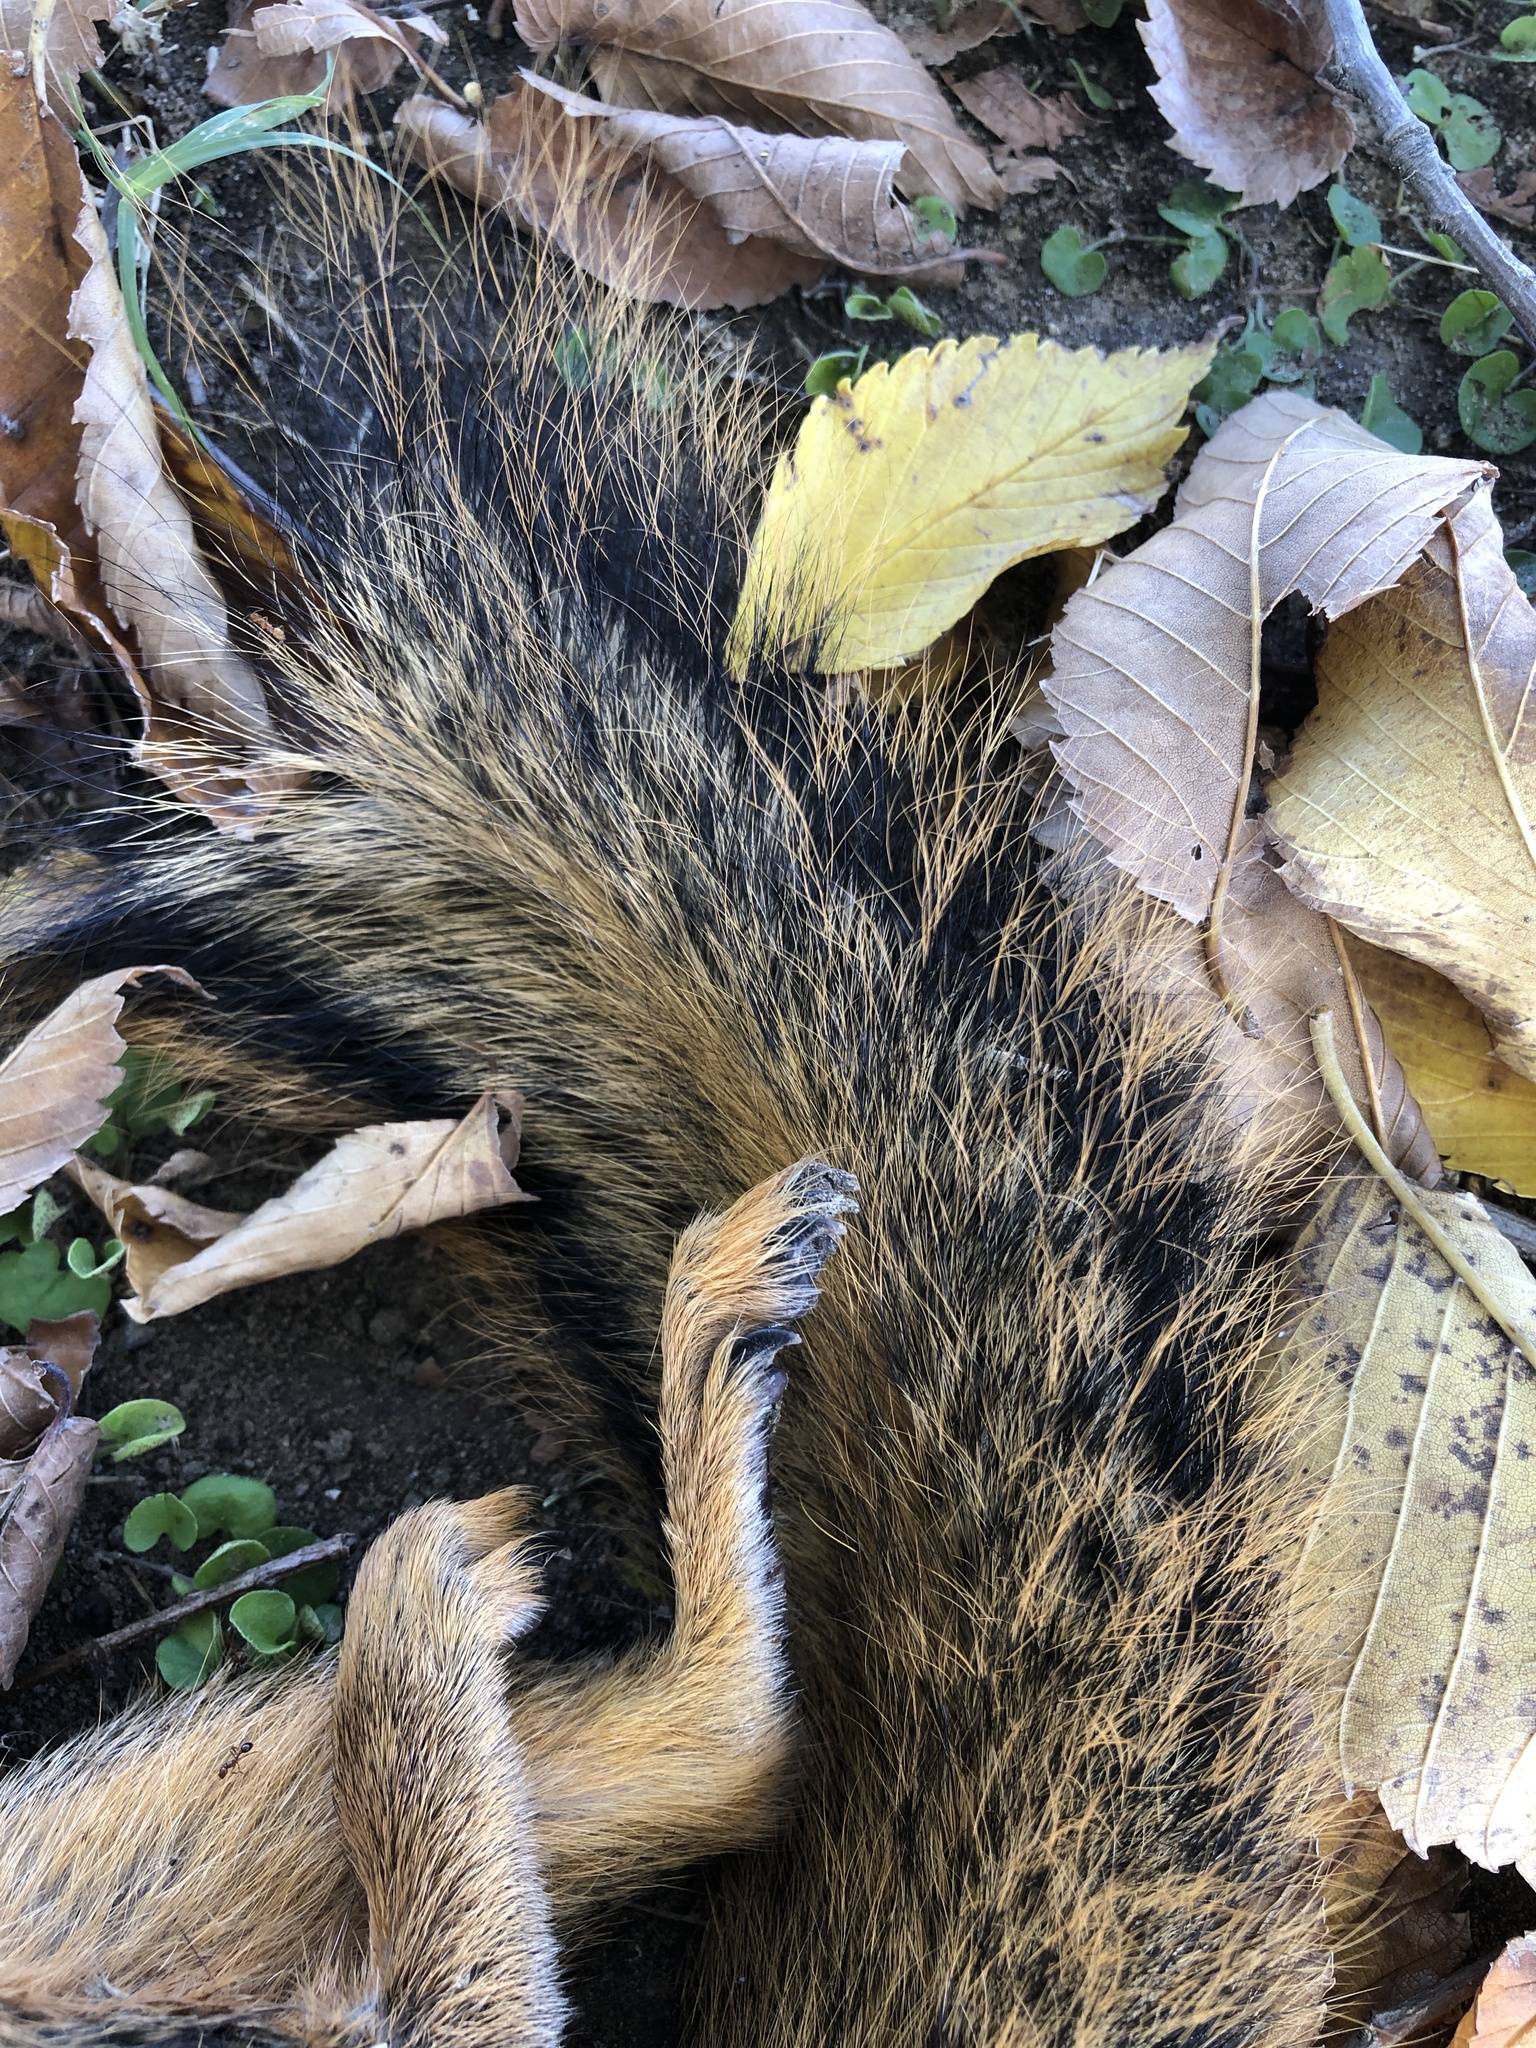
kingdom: Animalia
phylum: Chordata
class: Mammalia
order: Rodentia
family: Sciuridae
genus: Sciurus
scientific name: Sciurus niger
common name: Fox squirrel
